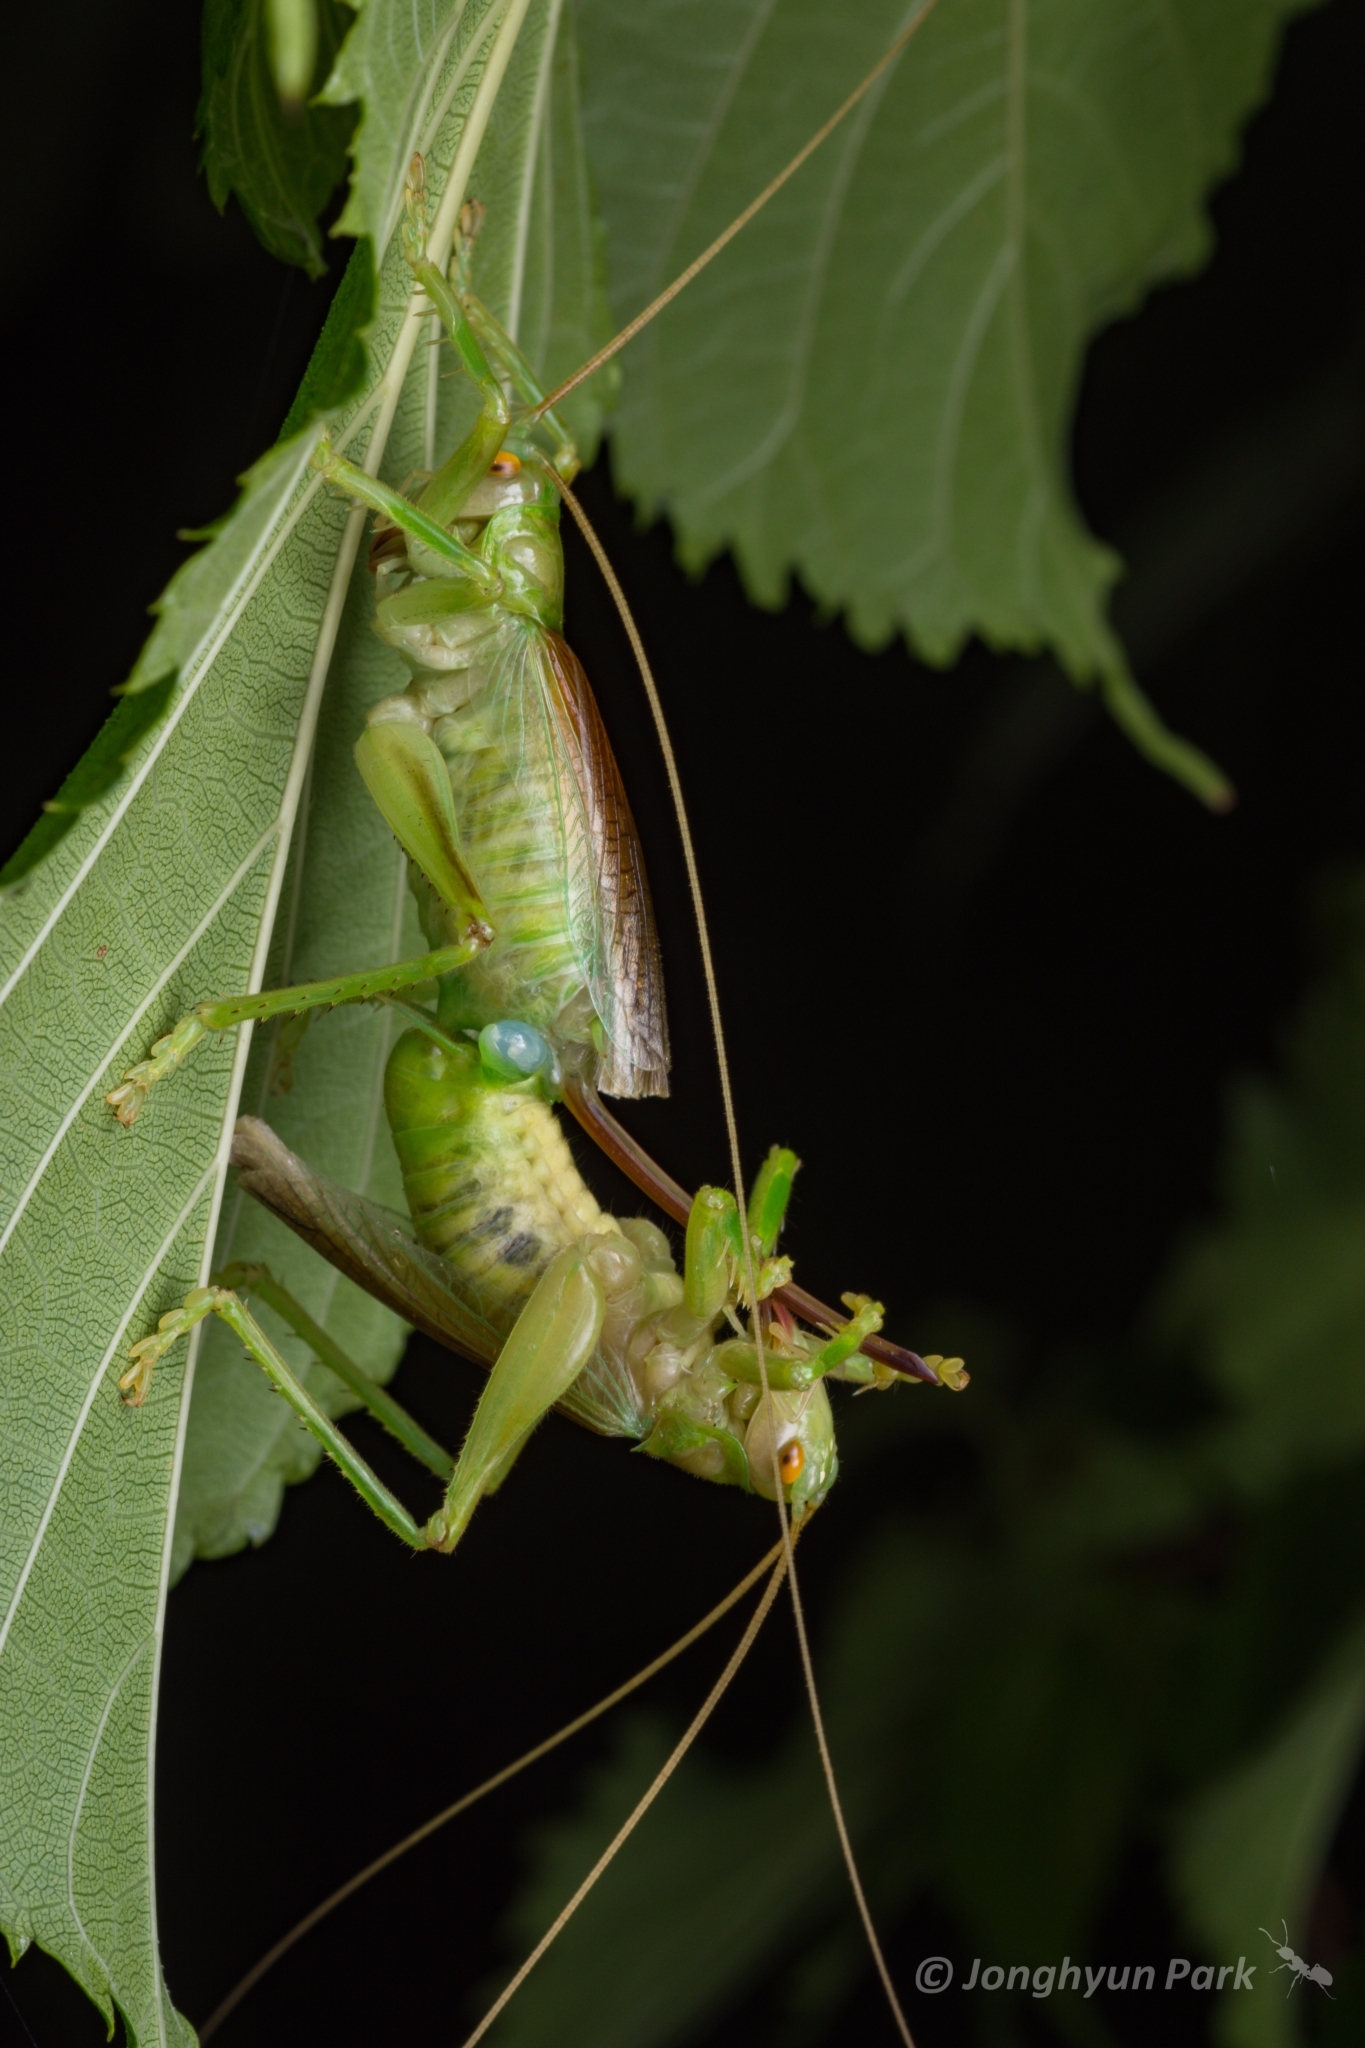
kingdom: Animalia
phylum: Arthropoda
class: Insecta
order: Orthoptera
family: Gryllacrididae
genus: Eugryllacris
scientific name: Eugryllacris japonica
